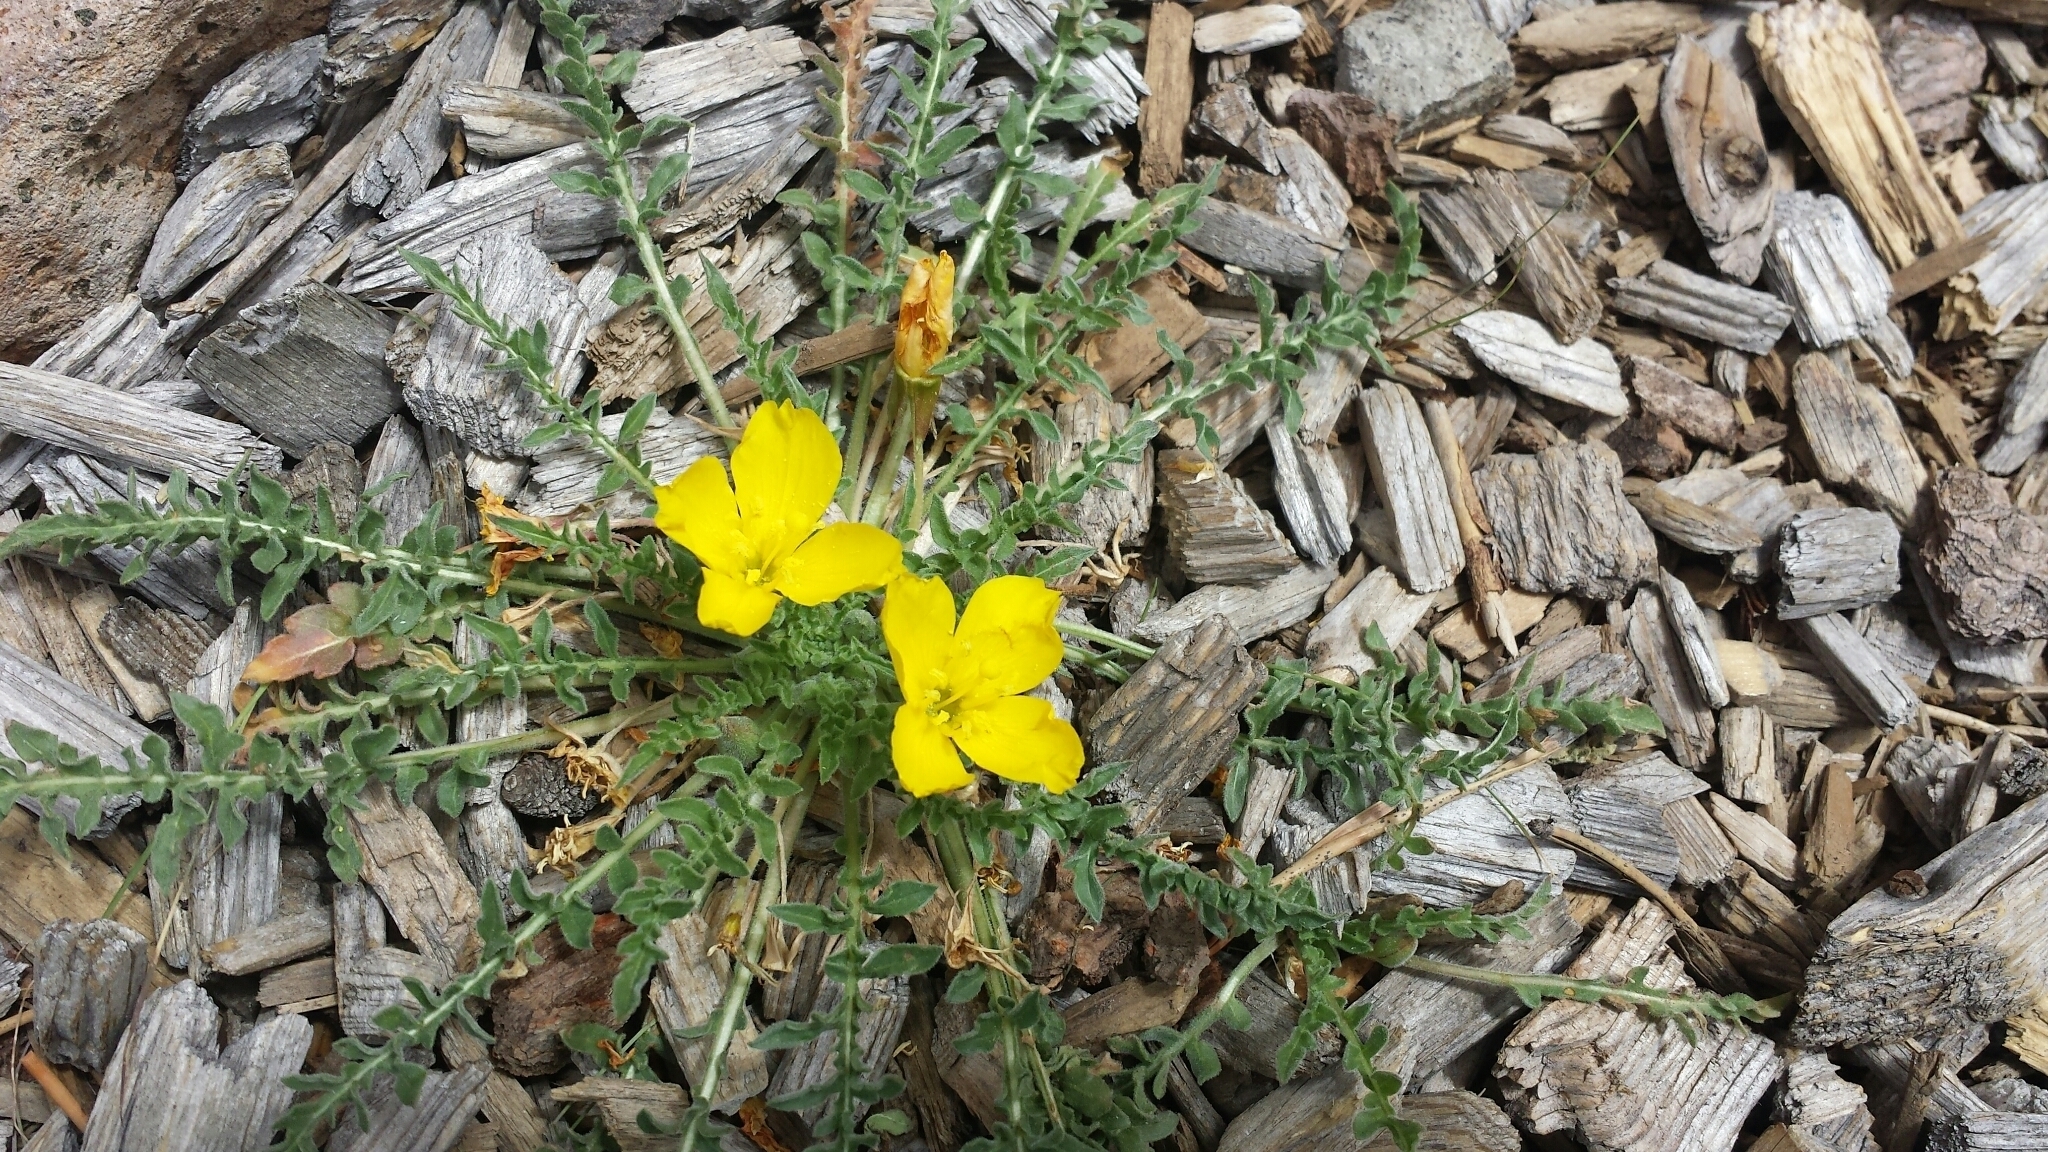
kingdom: Plantae
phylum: Tracheophyta
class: Magnoliopsida
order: Myrtales
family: Onagraceae
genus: Taraxia
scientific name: Taraxia tanacetifolia
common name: Tansyleaf evening primrose
